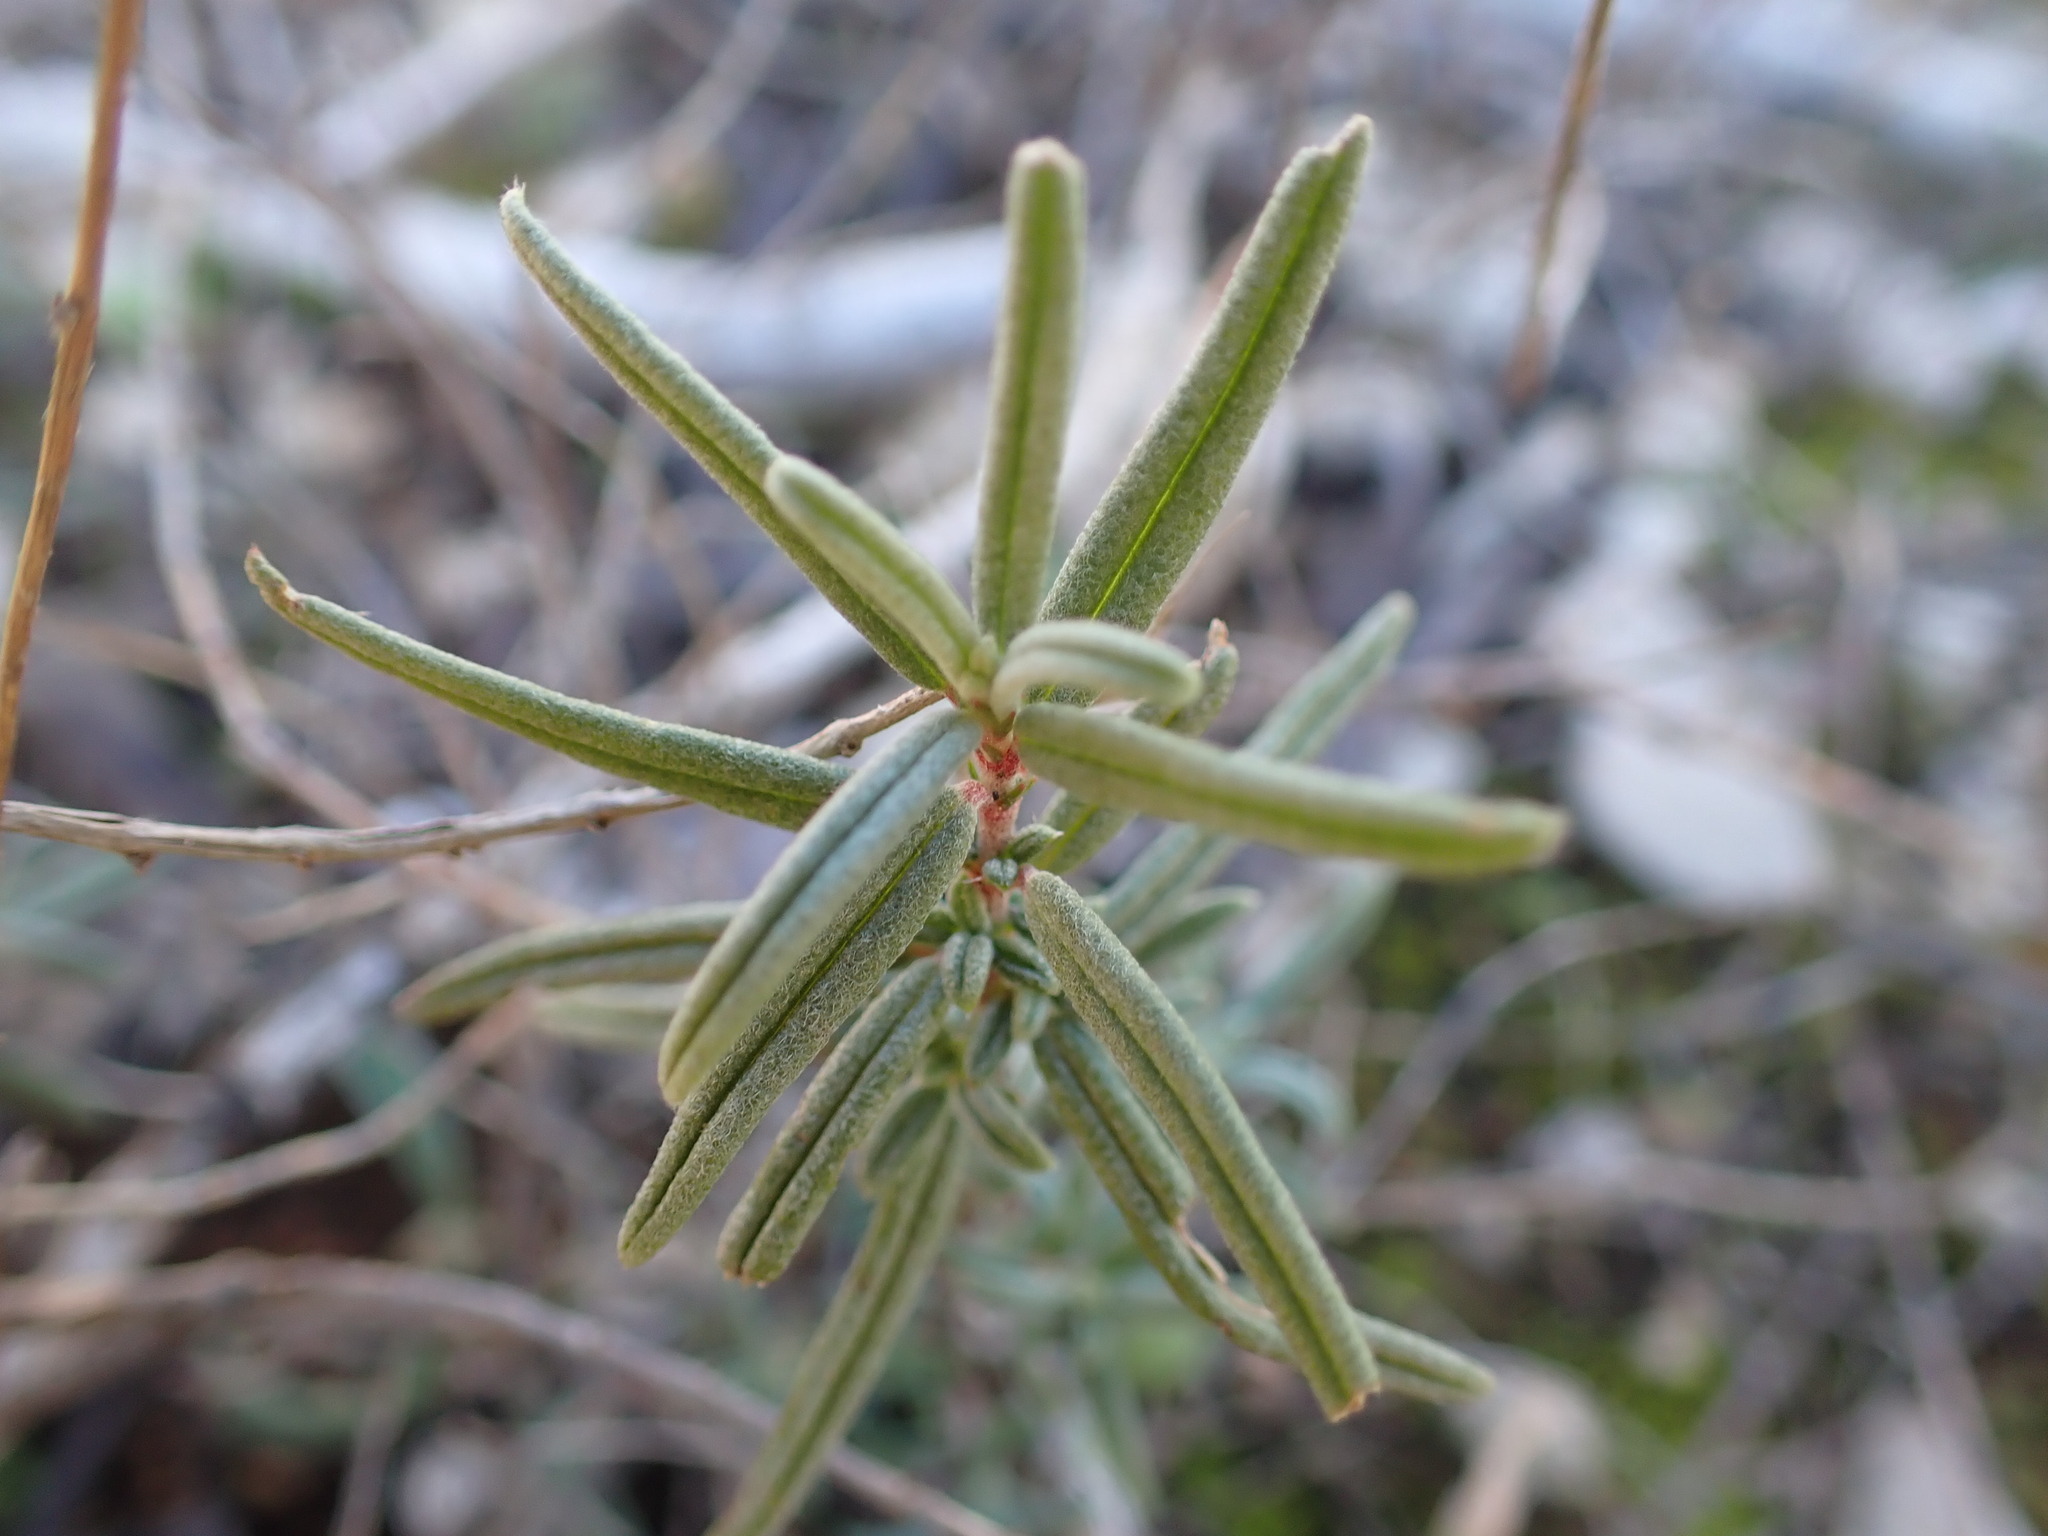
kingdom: Plantae
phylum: Tracheophyta
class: Magnoliopsida
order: Malvales
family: Cistaceae
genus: Helianthemum
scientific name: Helianthemum apenninum
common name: White rock-rose
